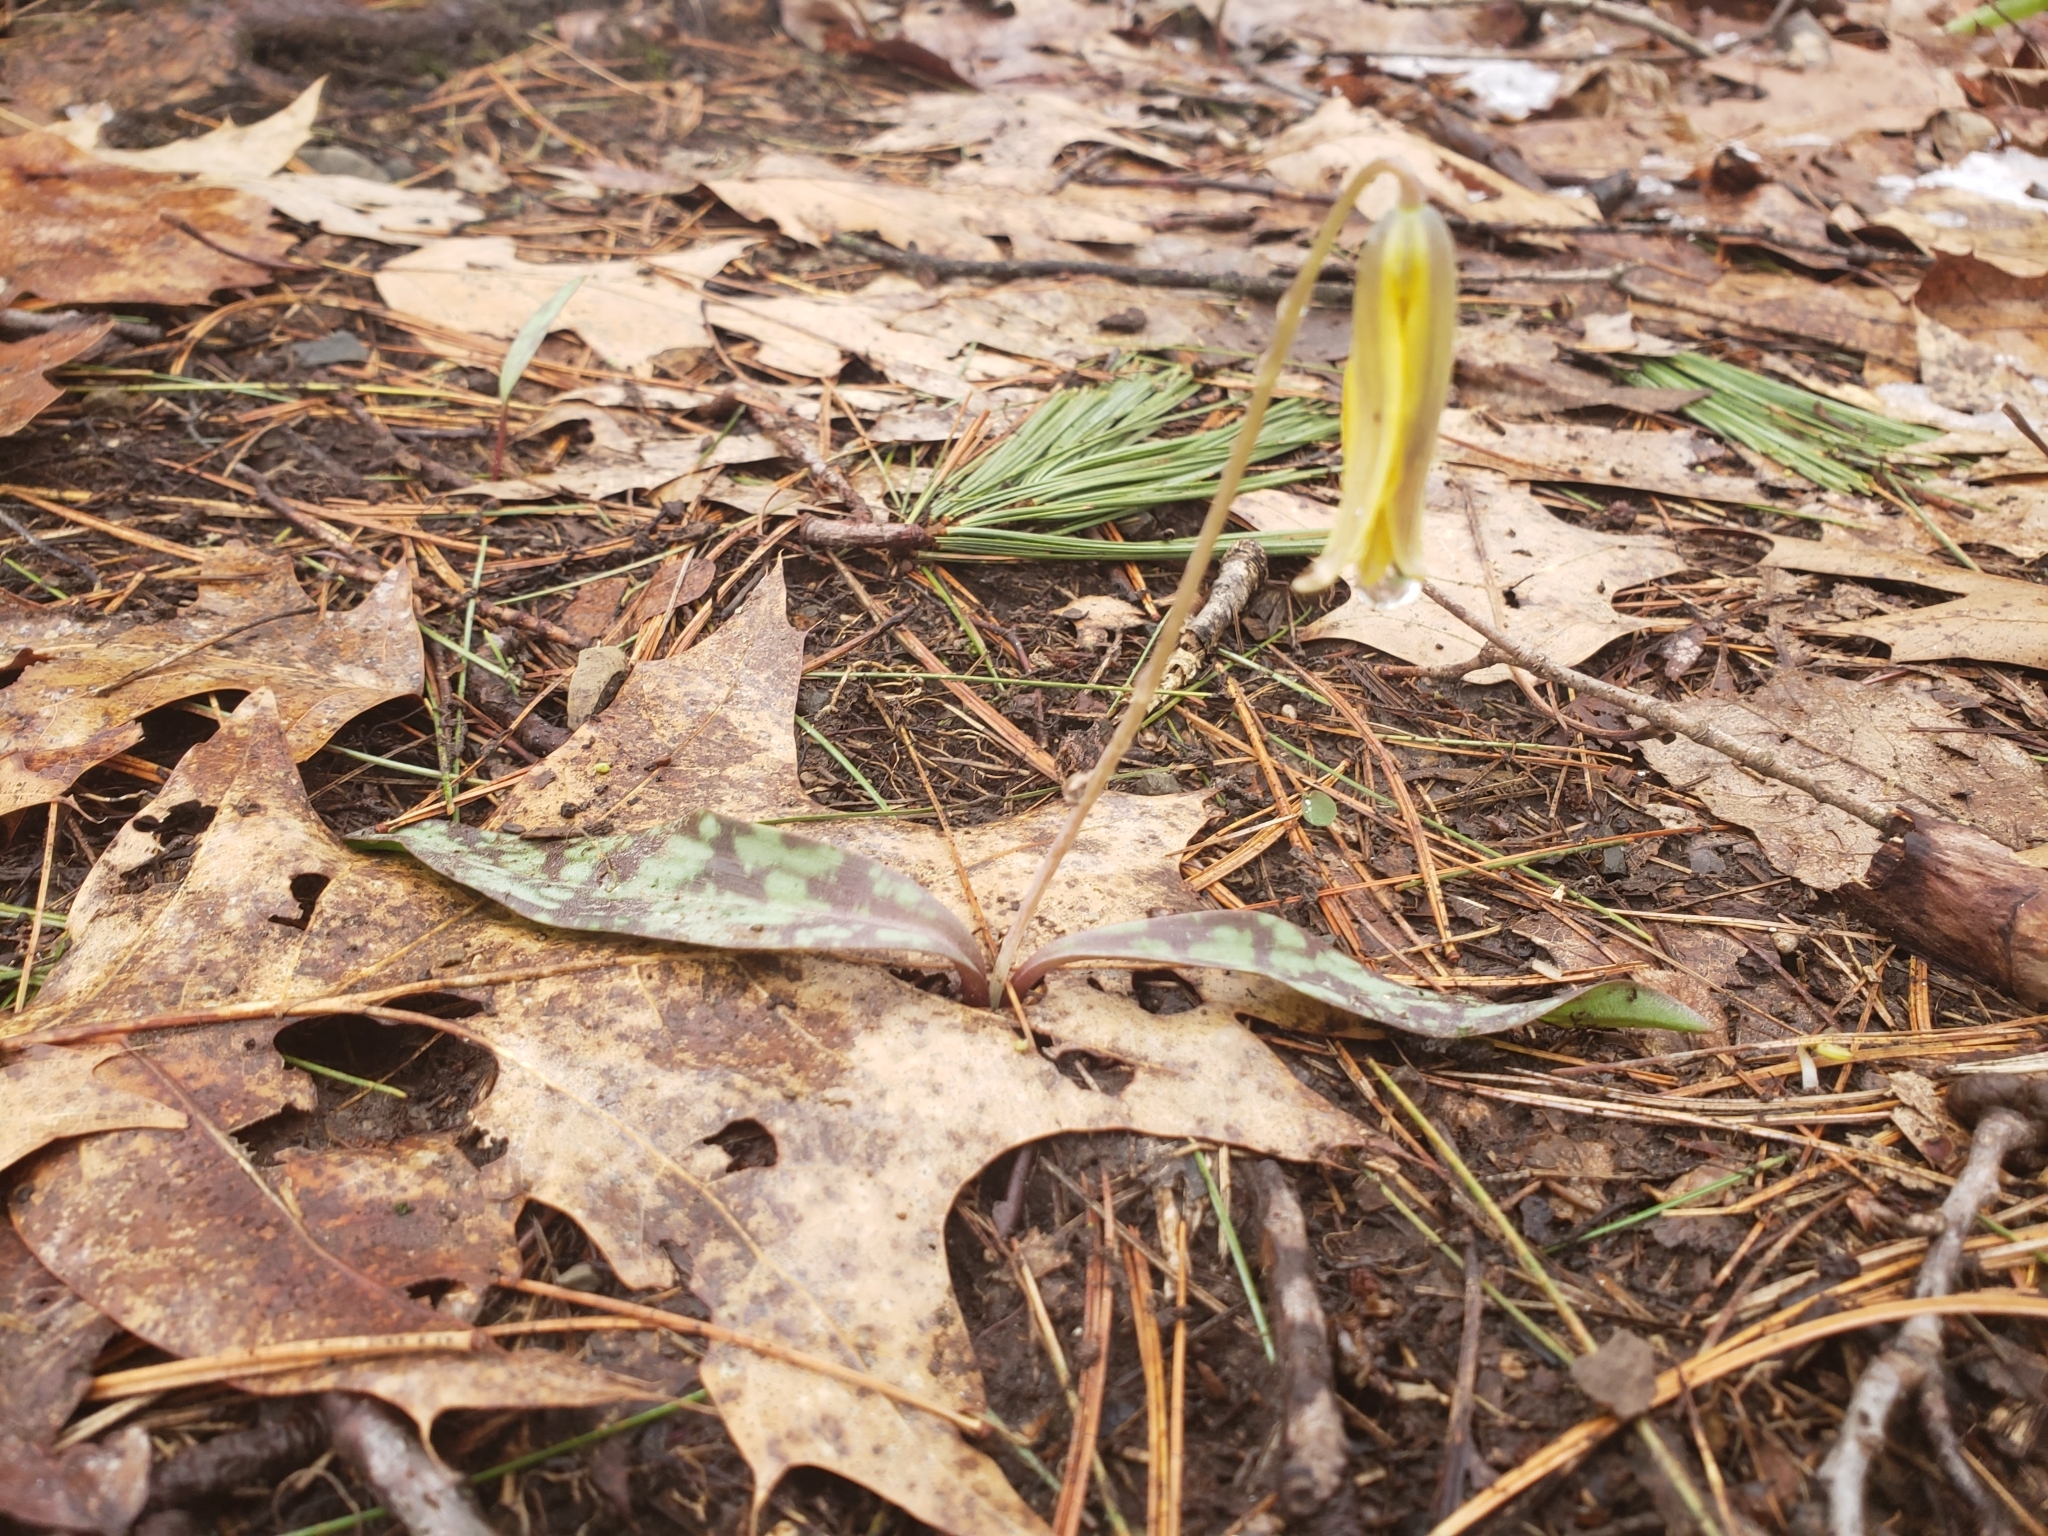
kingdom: Plantae
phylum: Tracheophyta
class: Liliopsida
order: Liliales
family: Liliaceae
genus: Erythronium
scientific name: Erythronium americanum
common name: Yellow adder's-tongue
